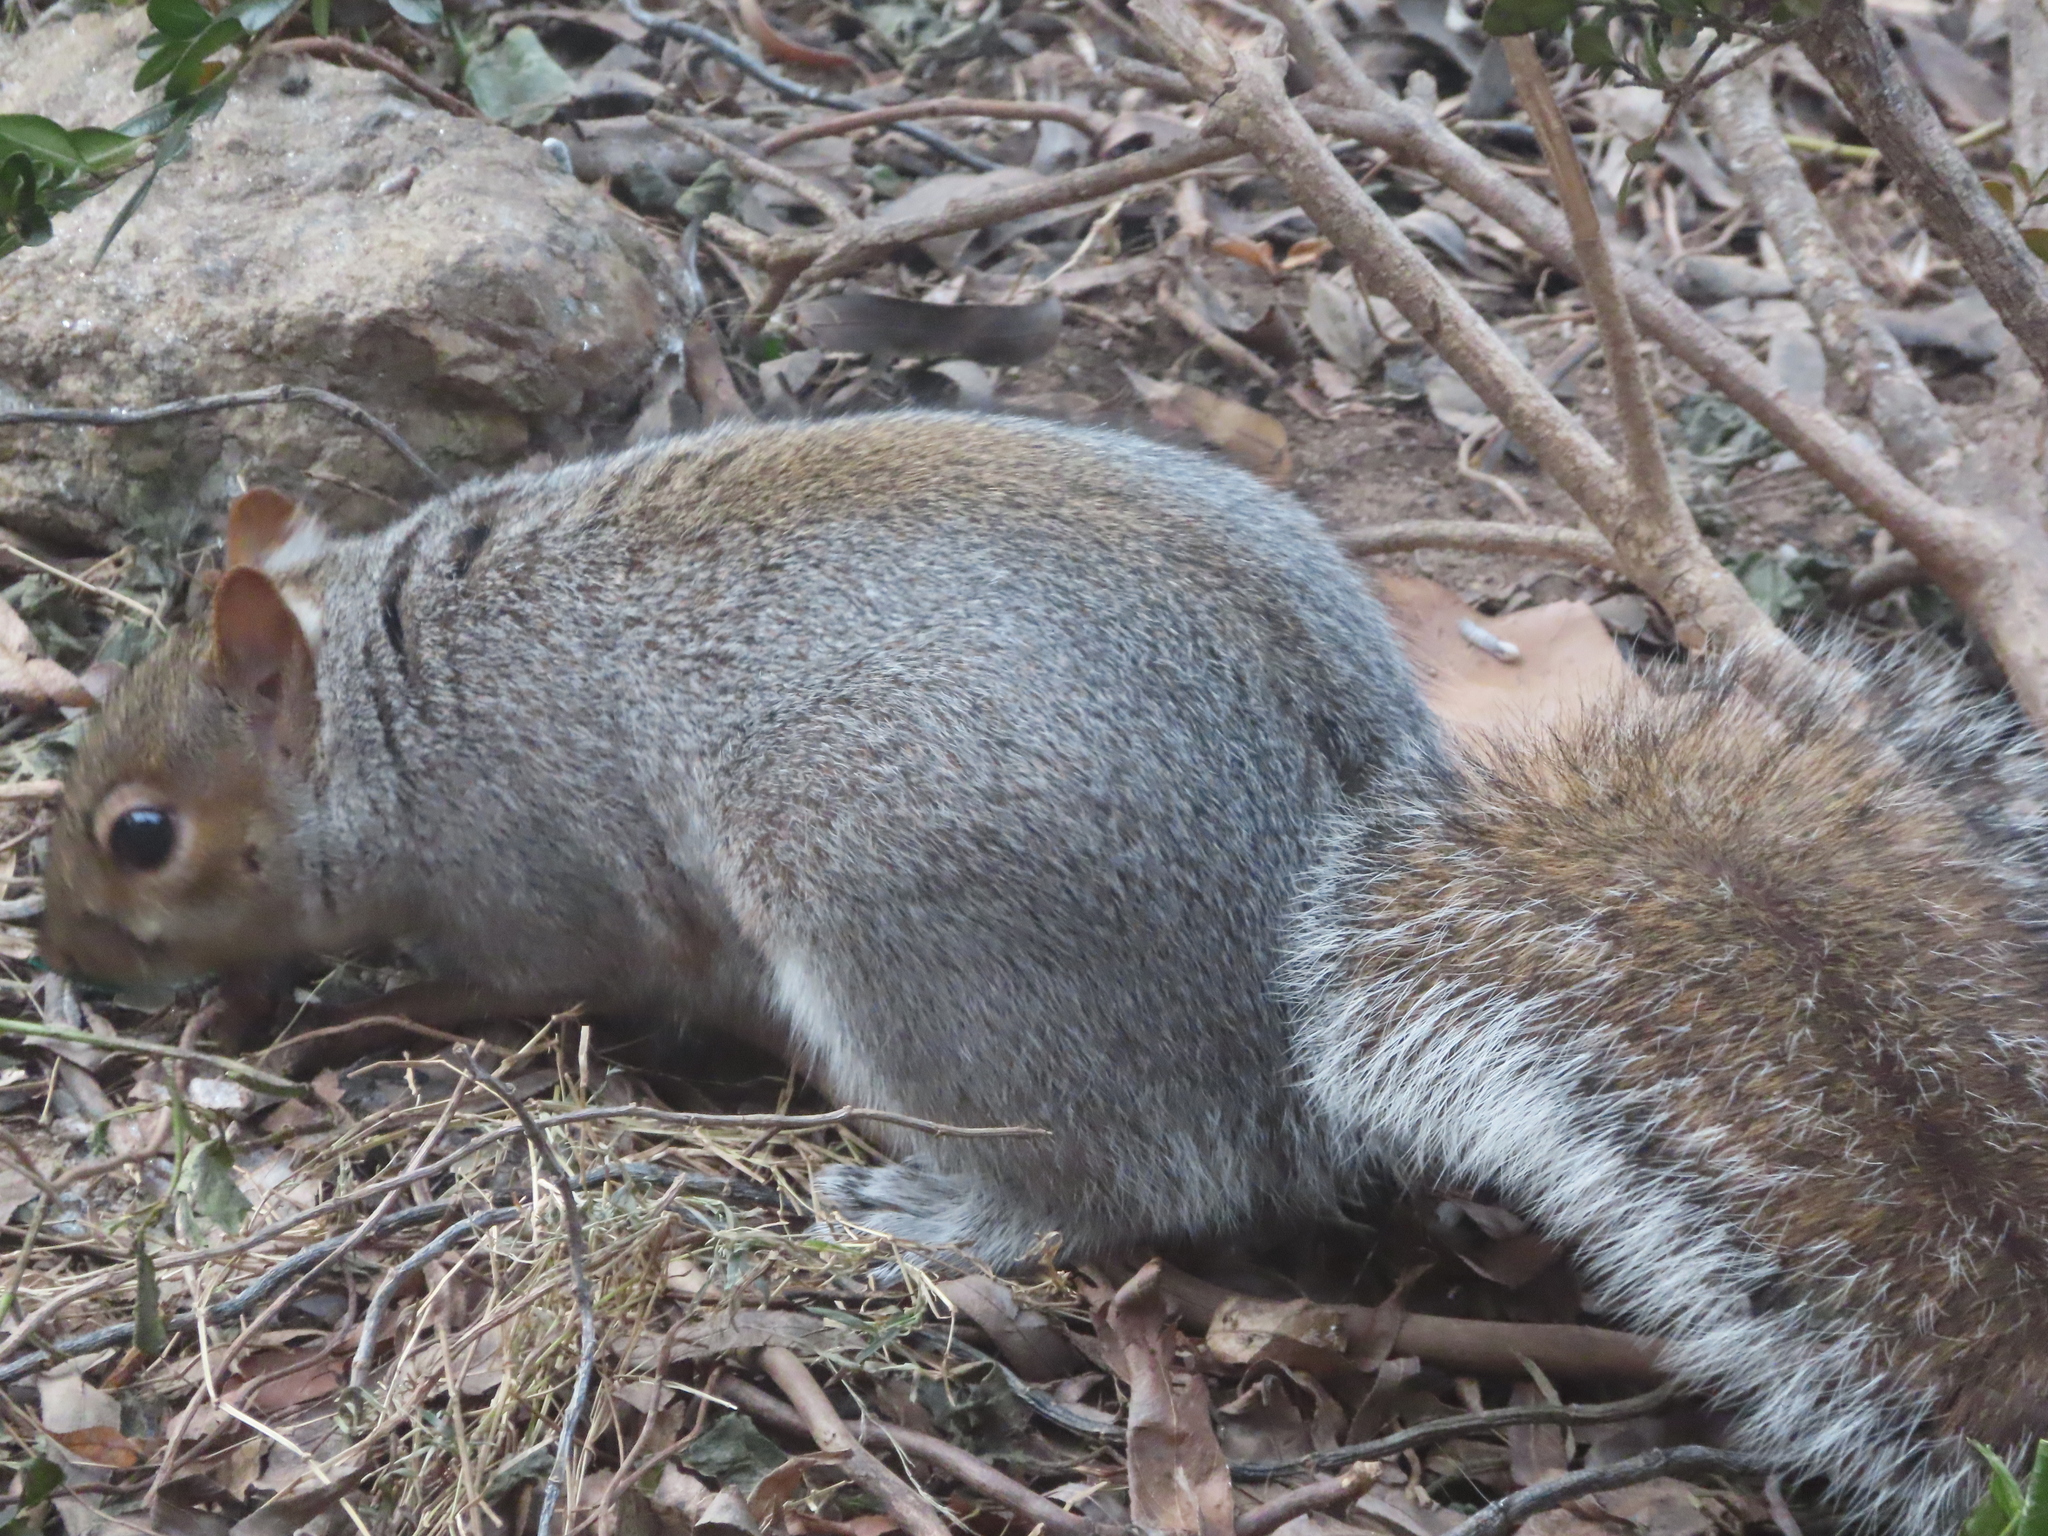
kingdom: Animalia
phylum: Chordata
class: Mammalia
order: Rodentia
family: Sciuridae
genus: Sciurus
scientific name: Sciurus carolinensis
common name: Eastern gray squirrel
